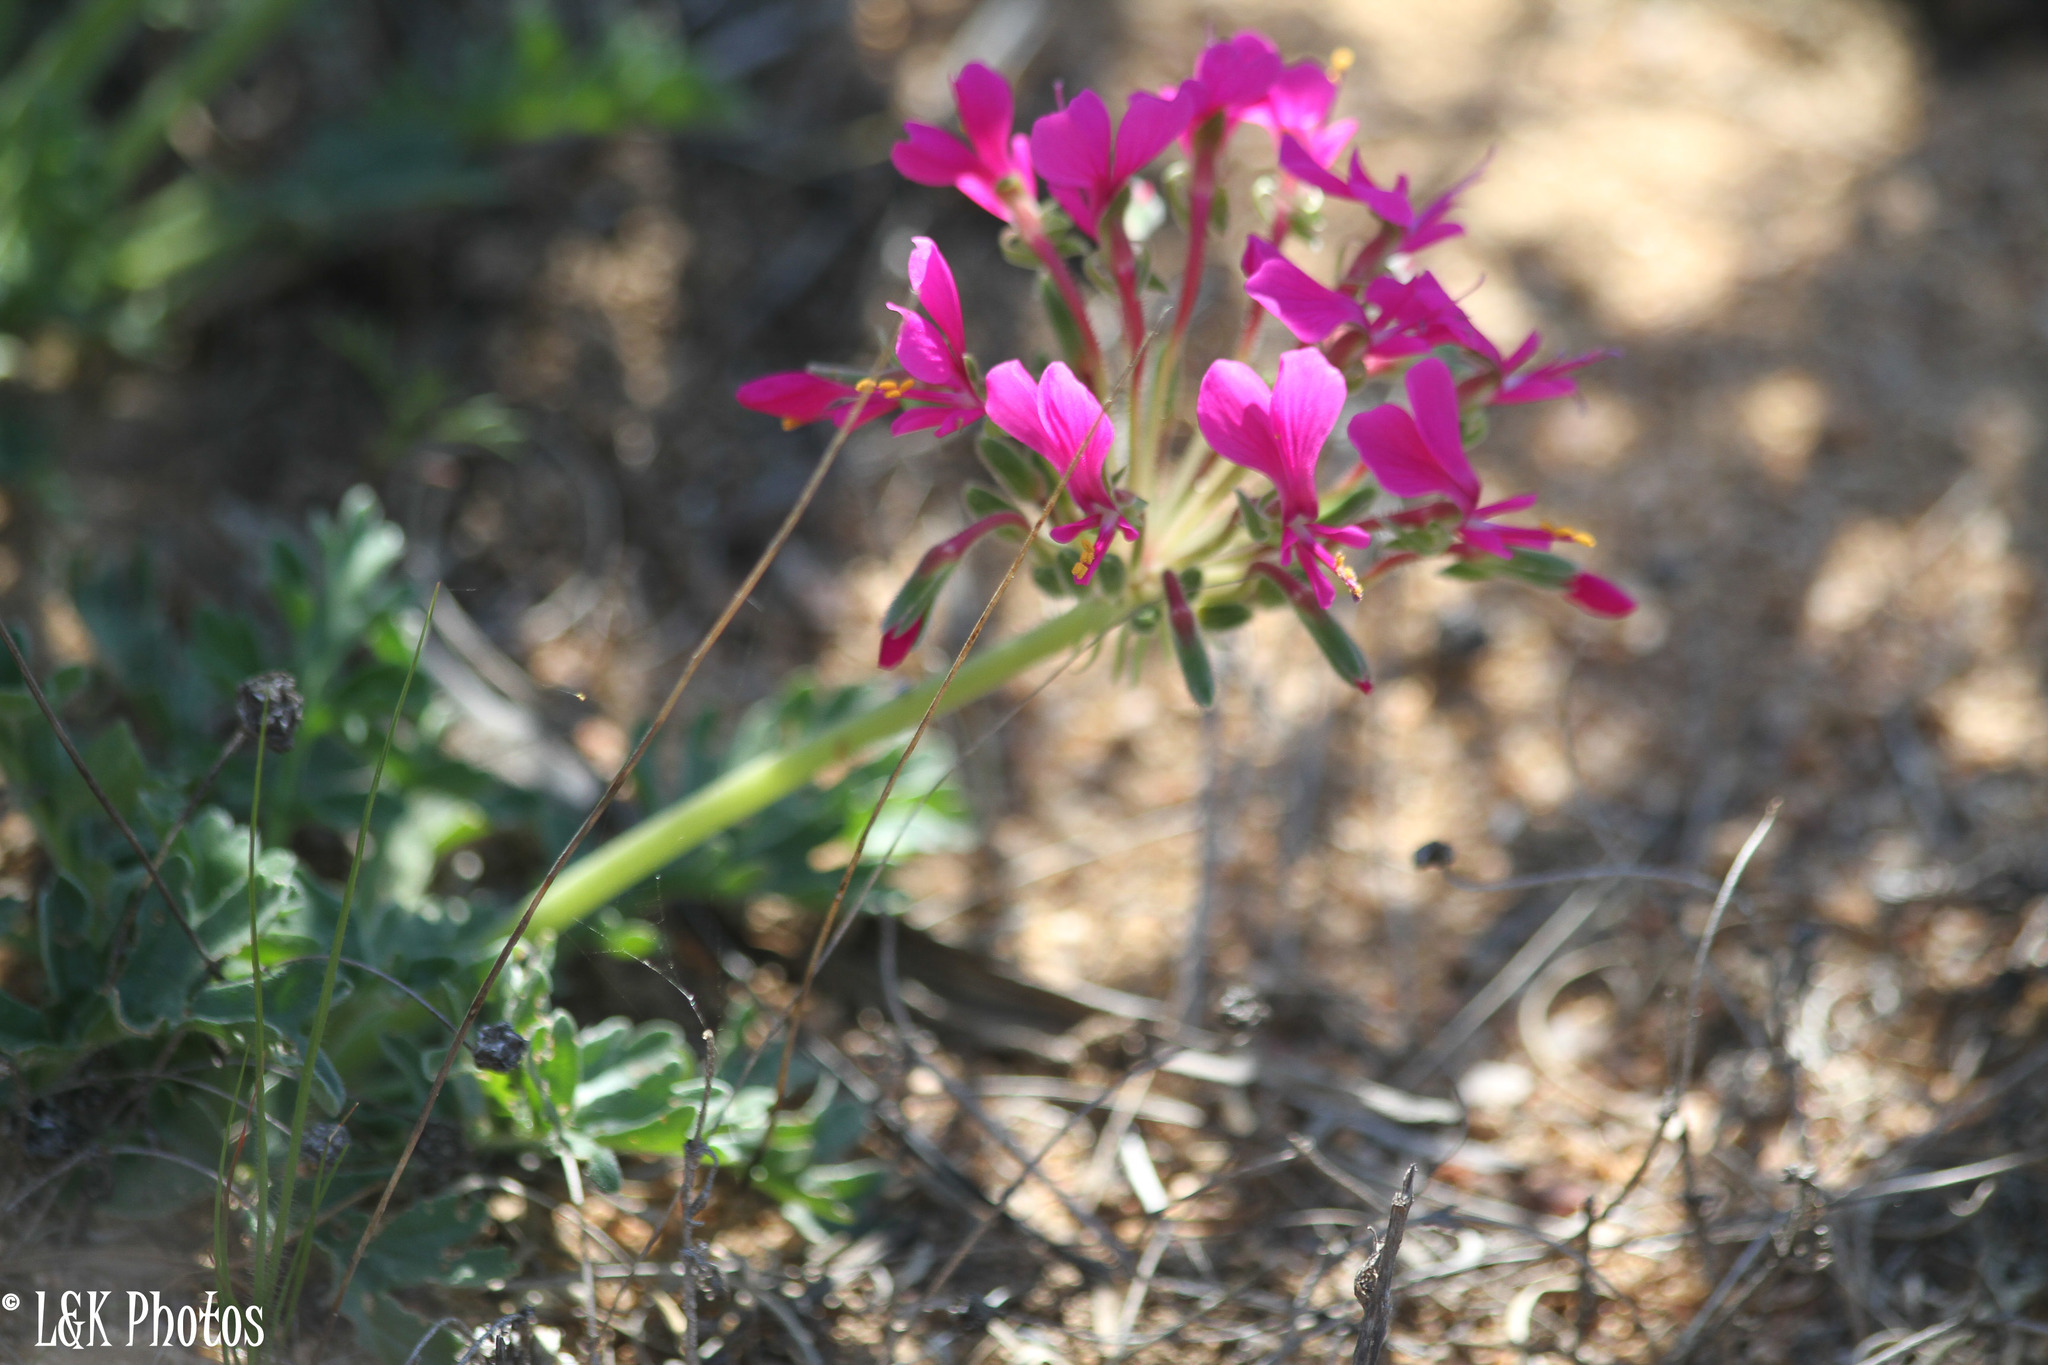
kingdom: Plantae
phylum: Tracheophyta
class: Magnoliopsida
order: Geraniales
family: Geraniaceae
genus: Pelargonium
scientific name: Pelargonium incrassatum
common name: Namaqualand beauty
